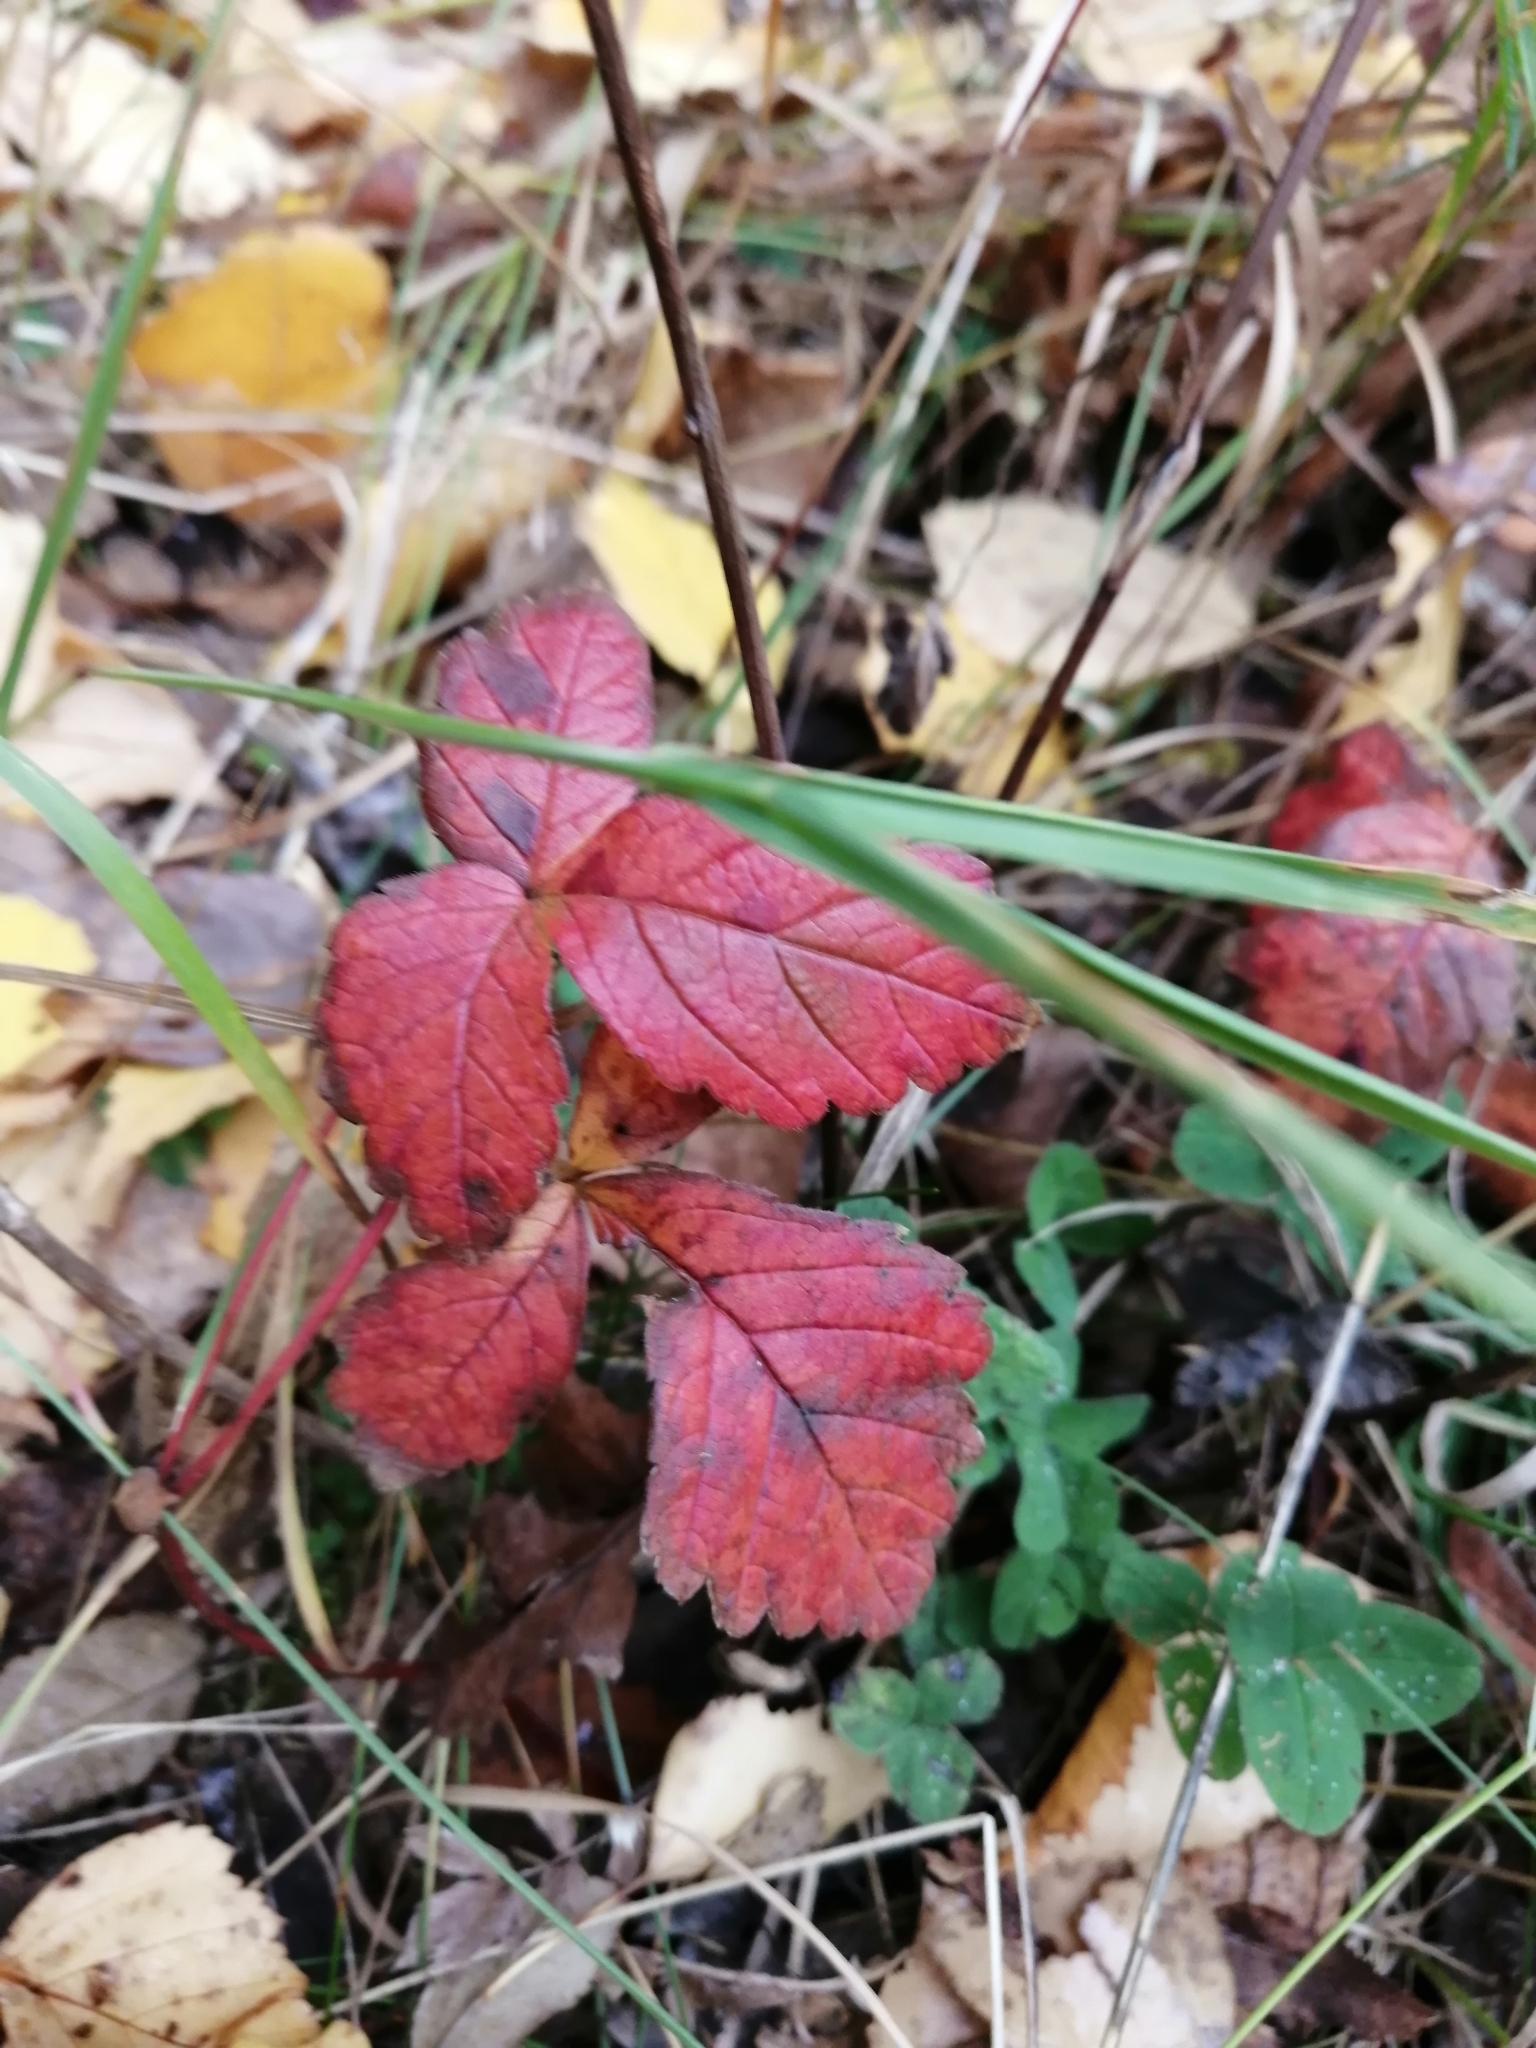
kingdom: Plantae
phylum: Tracheophyta
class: Magnoliopsida
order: Rosales
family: Rosaceae
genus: Rubus
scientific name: Rubus arcticus
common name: Arctic bramble
